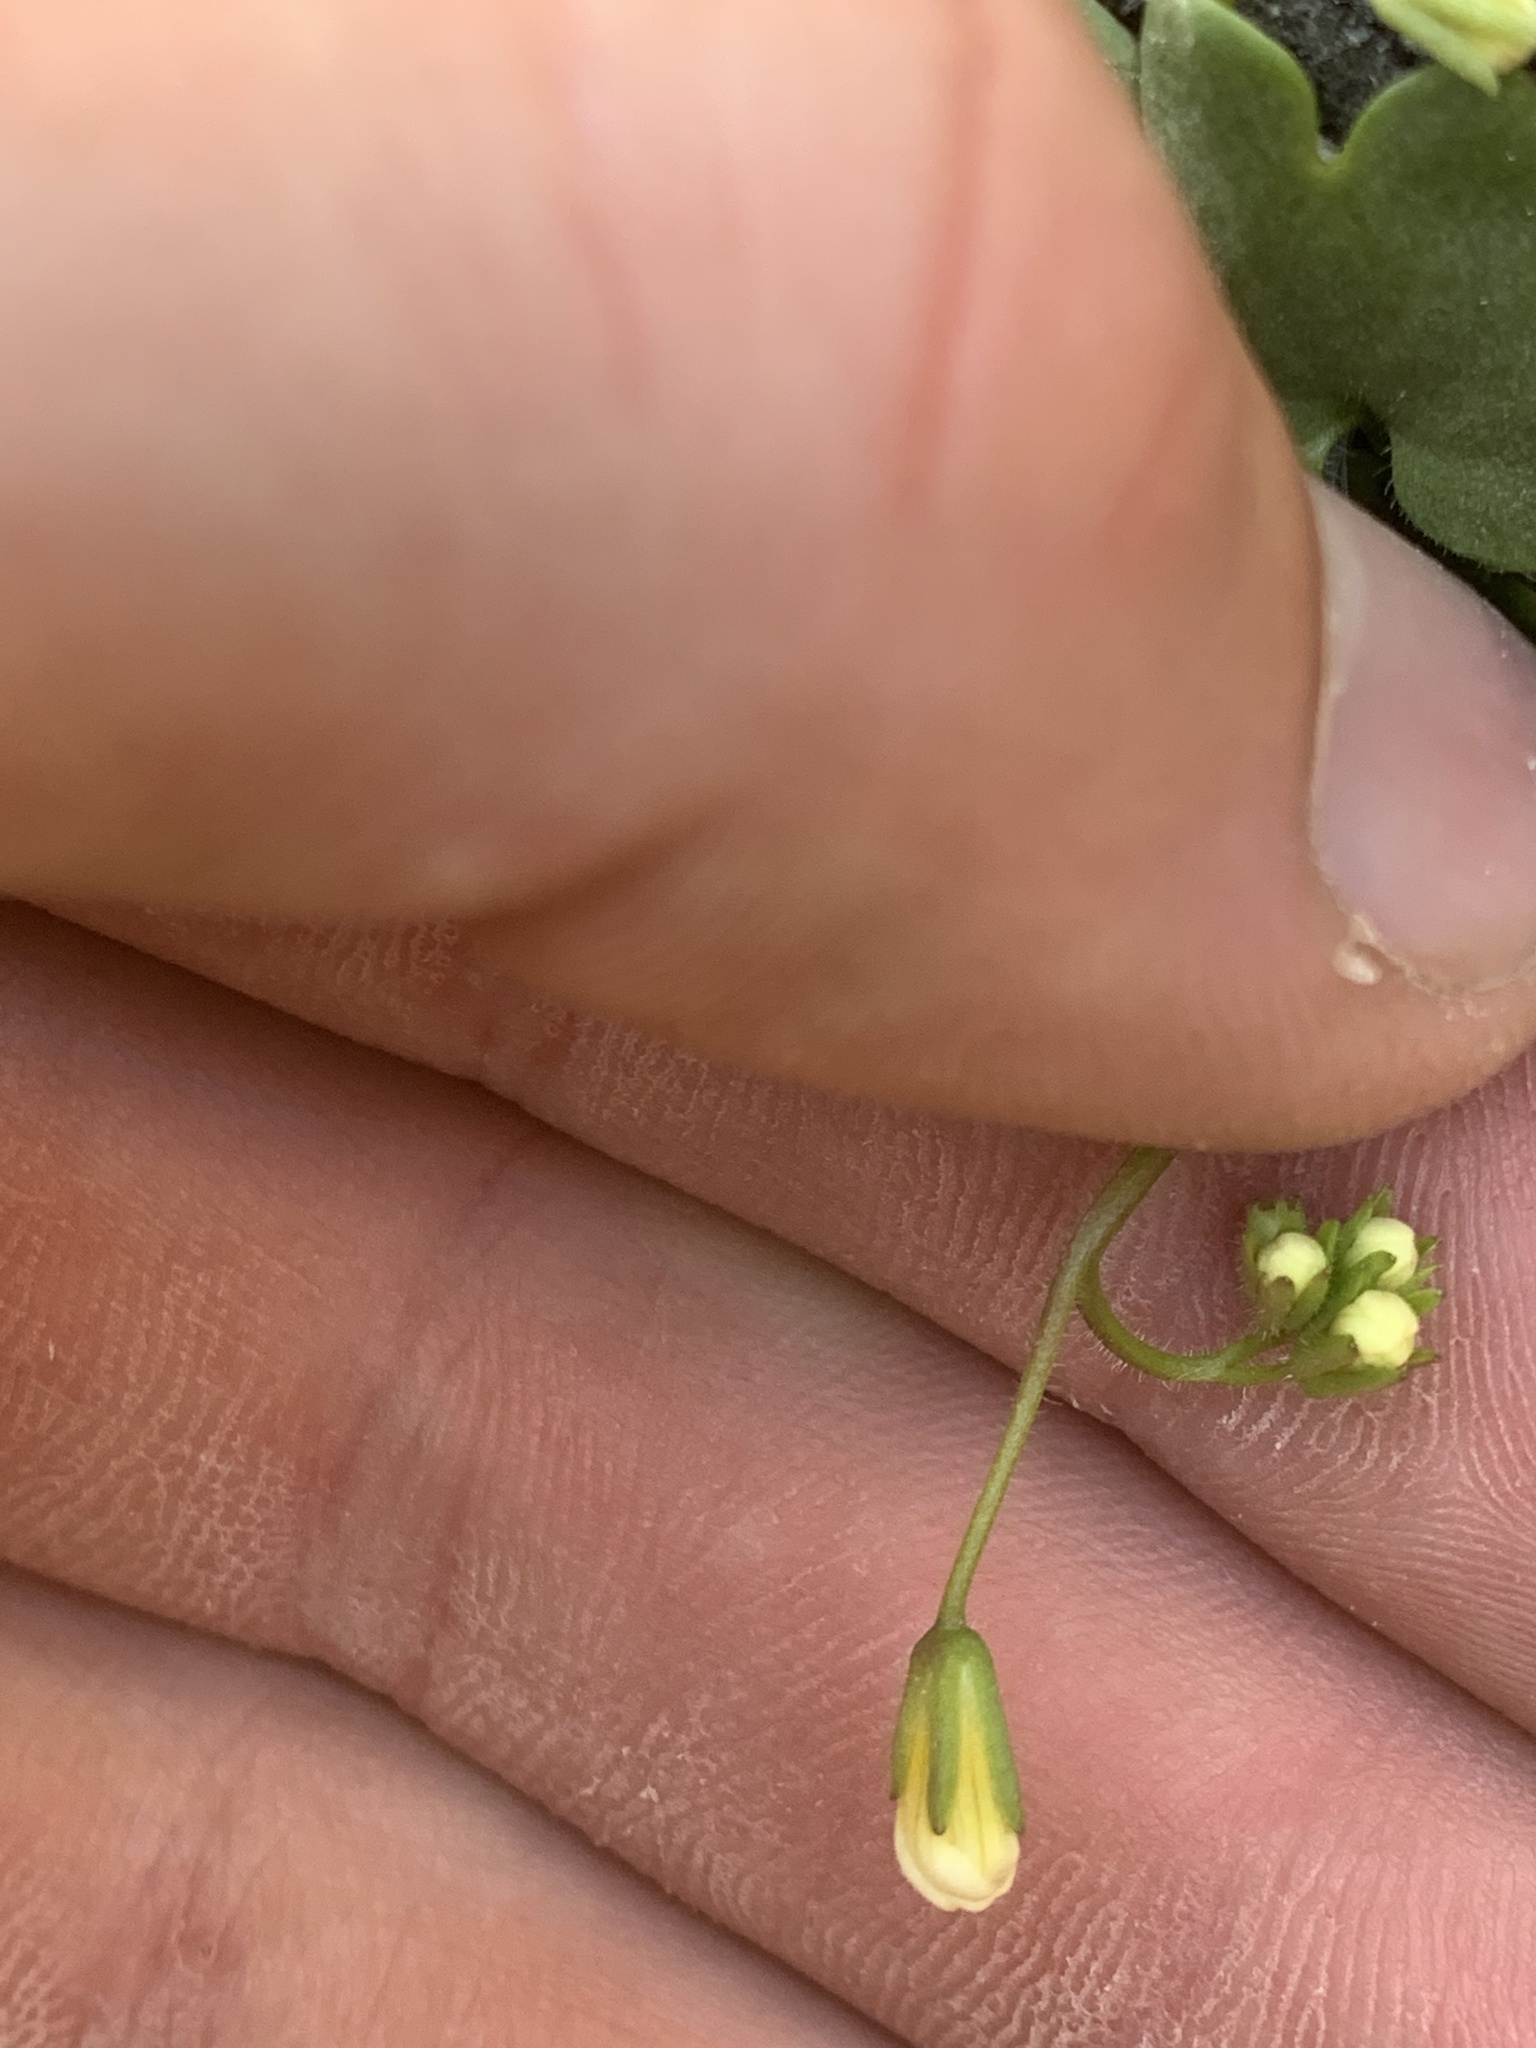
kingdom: Plantae
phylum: Tracheophyta
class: Magnoliopsida
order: Boraginales
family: Hydrophyllaceae
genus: Romanzoffia
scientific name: Romanzoffia sitchensis
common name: Sitka mistmaid
